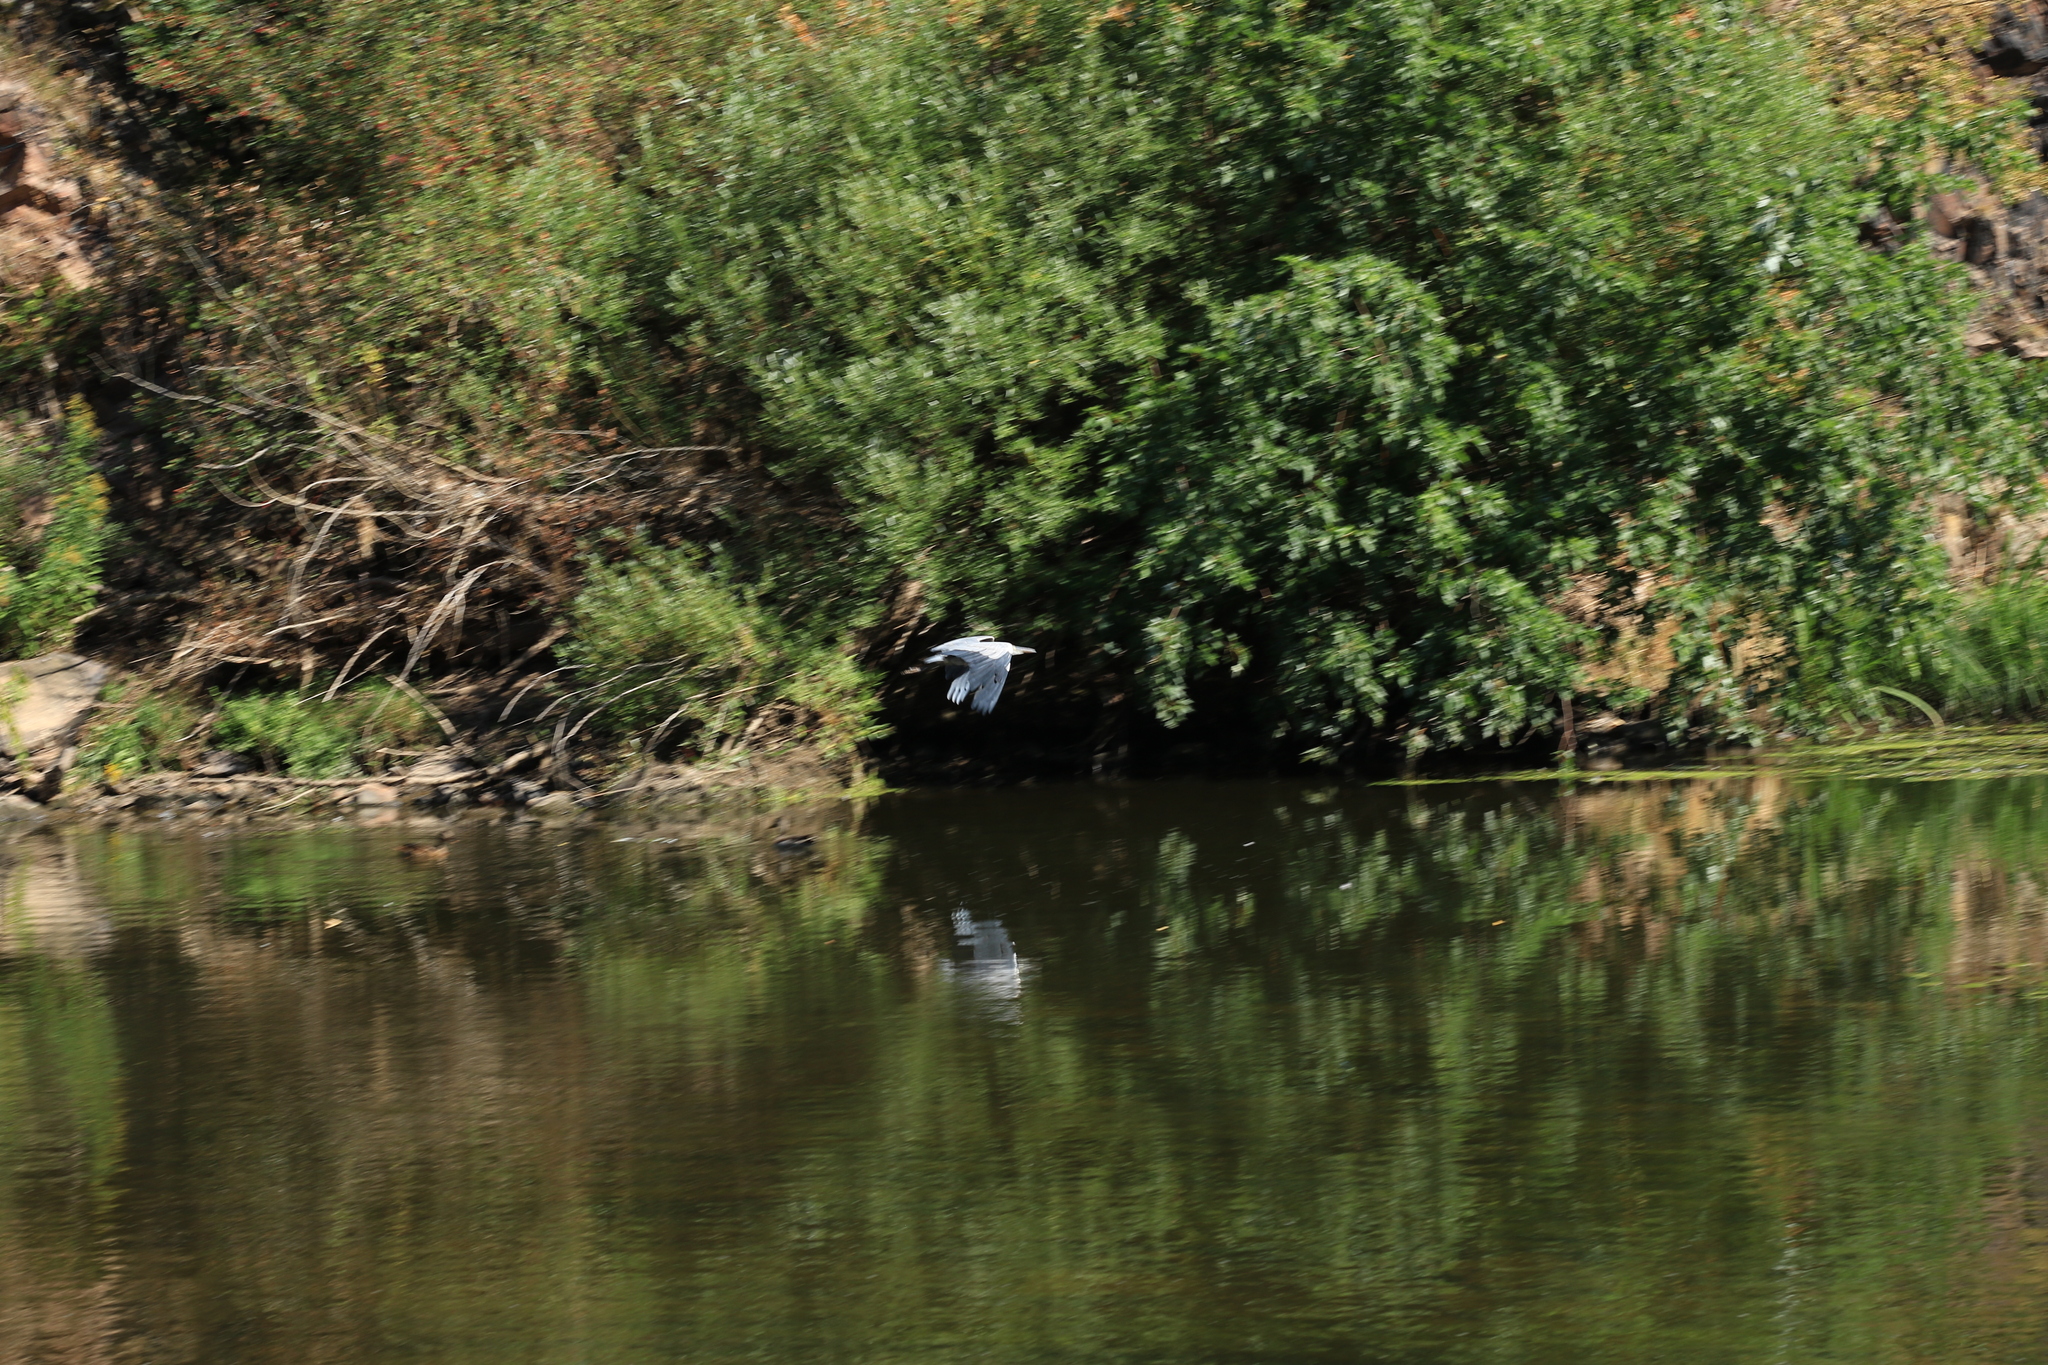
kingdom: Animalia
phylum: Chordata
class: Aves
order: Pelecaniformes
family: Ardeidae
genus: Ardea
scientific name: Ardea cinerea
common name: Grey heron
